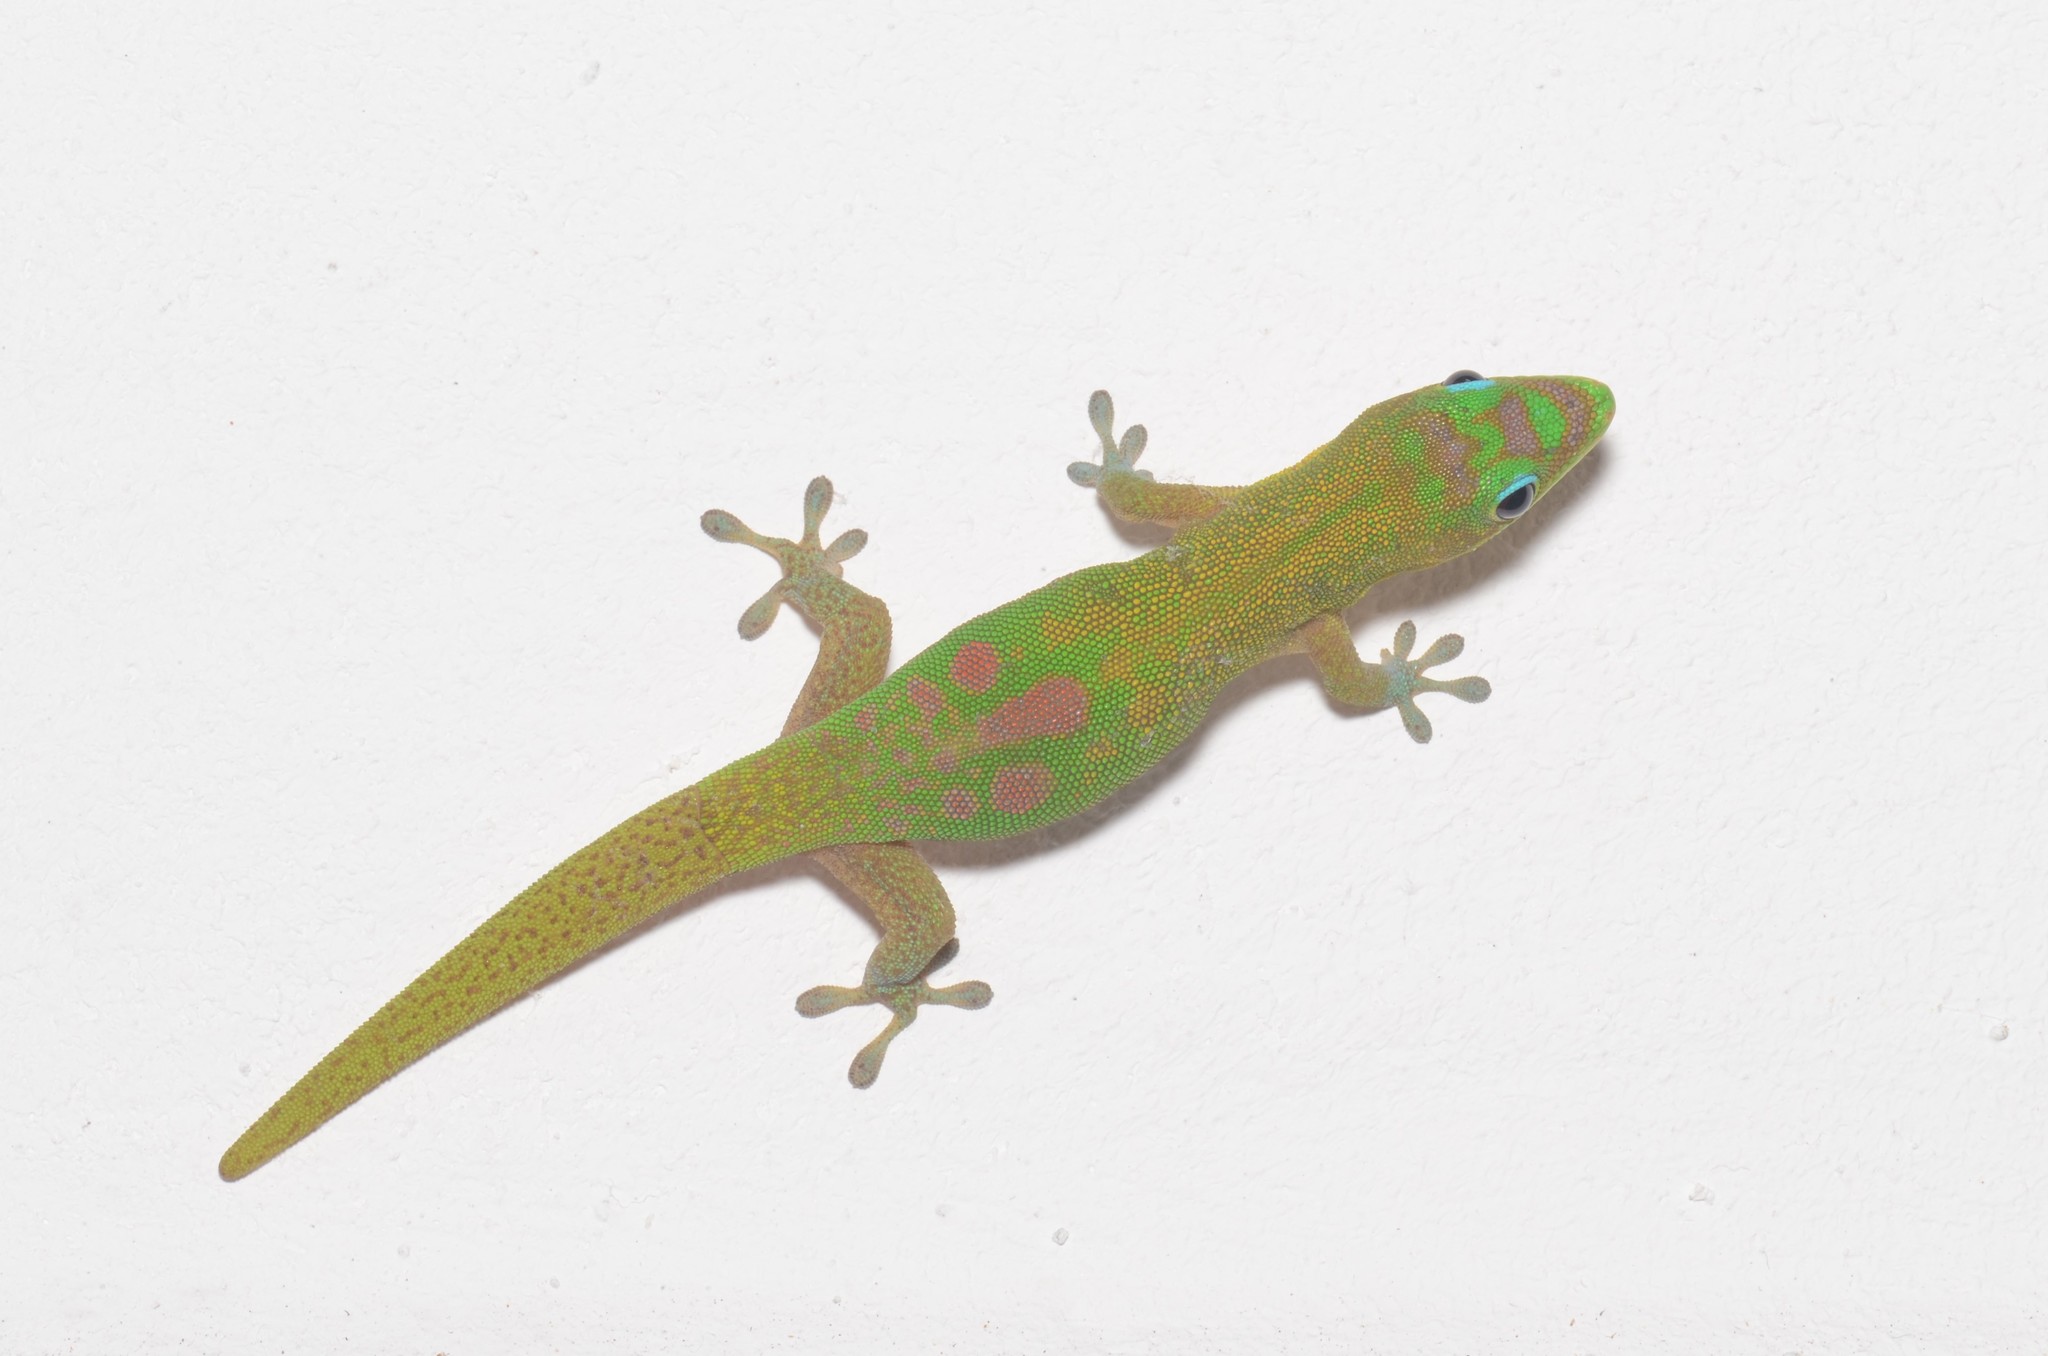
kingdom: Animalia
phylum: Chordata
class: Squamata
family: Gekkonidae
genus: Phelsuma
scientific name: Phelsuma laticauda
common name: Gold dust day gecko
